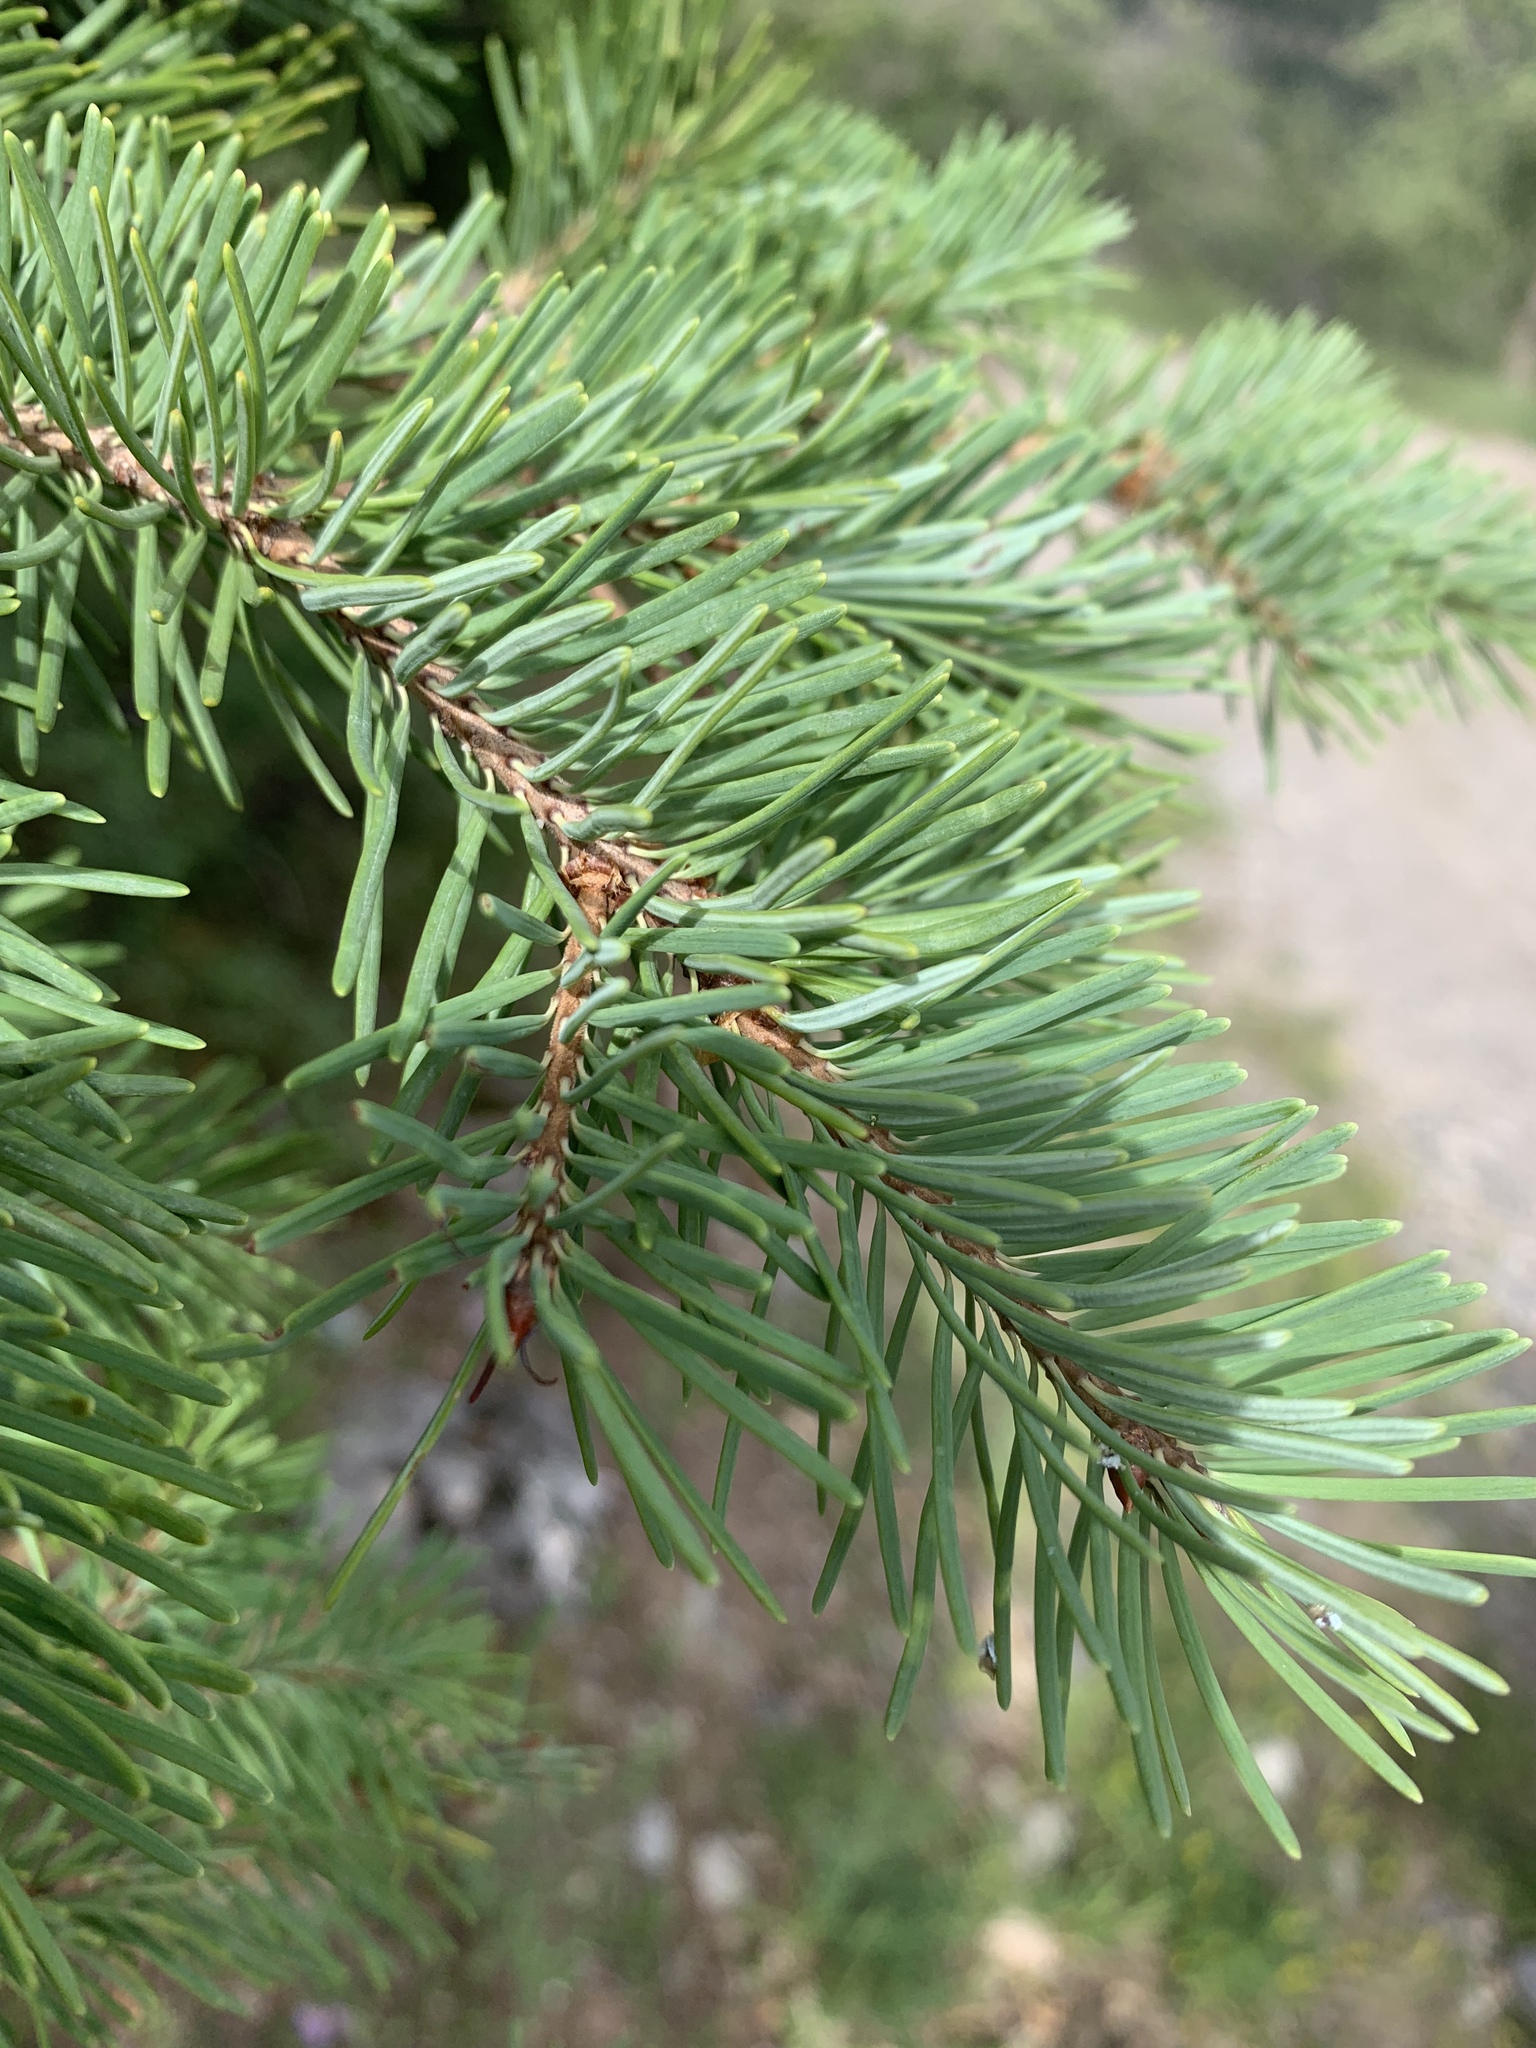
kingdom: Plantae
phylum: Tracheophyta
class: Pinopsida
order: Pinales
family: Pinaceae
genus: Pseudotsuga
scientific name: Pseudotsuga menziesii
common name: Douglas fir
